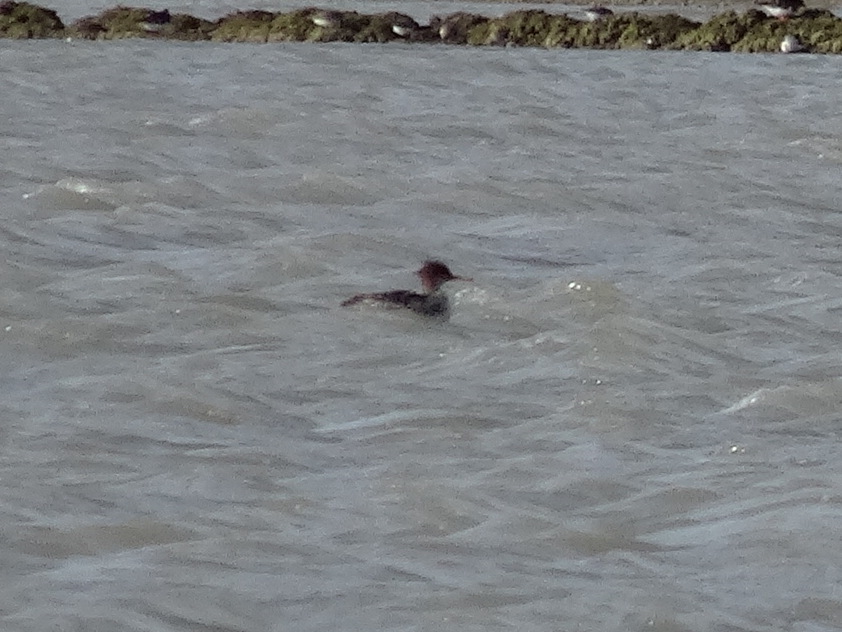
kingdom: Animalia
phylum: Chordata
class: Aves
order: Anseriformes
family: Anatidae
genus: Mergus
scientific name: Mergus serrator
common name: Red-breasted merganser
